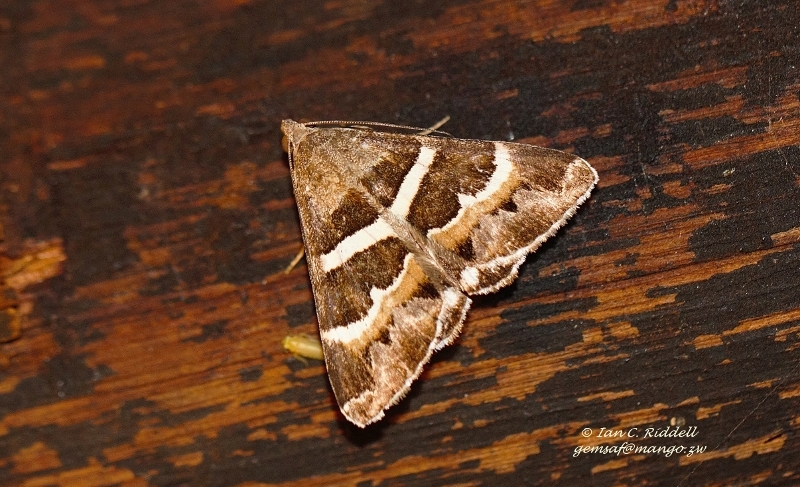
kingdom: Animalia
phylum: Arthropoda
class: Insecta
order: Lepidoptera
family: Erebidae
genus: Grammodes
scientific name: Grammodes stolida
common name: Geometrician
